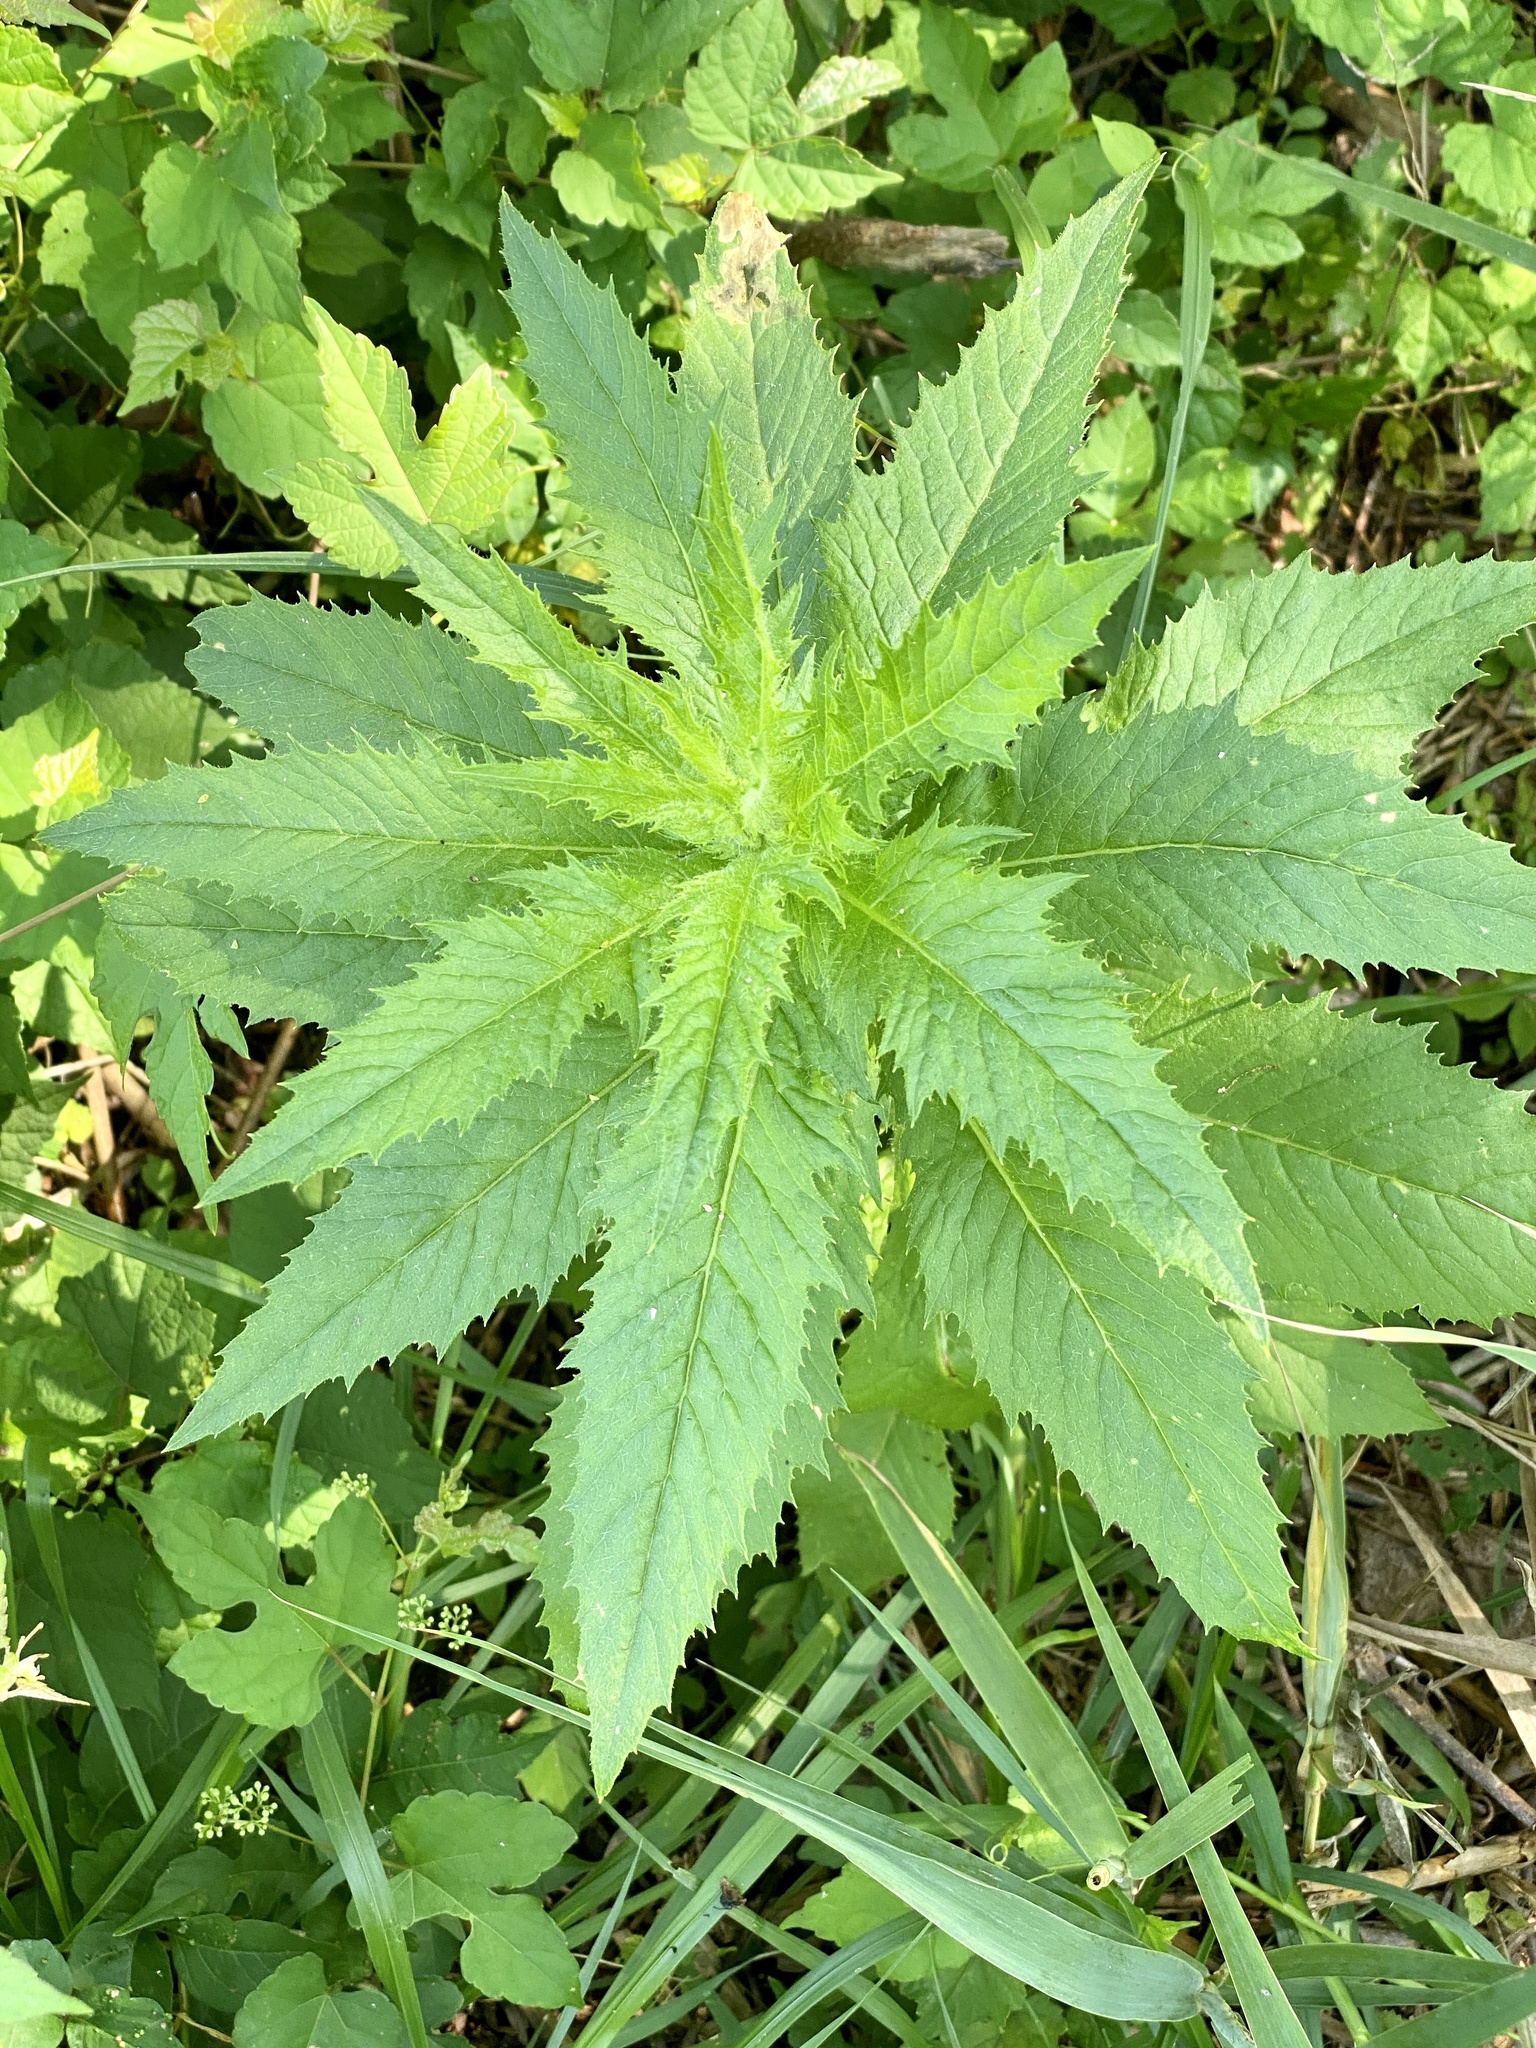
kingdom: Plantae
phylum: Tracheophyta
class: Magnoliopsida
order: Caryophyllales
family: Amaranthaceae
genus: Dysphania
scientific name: Dysphania ambrosioides
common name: Wormseed
